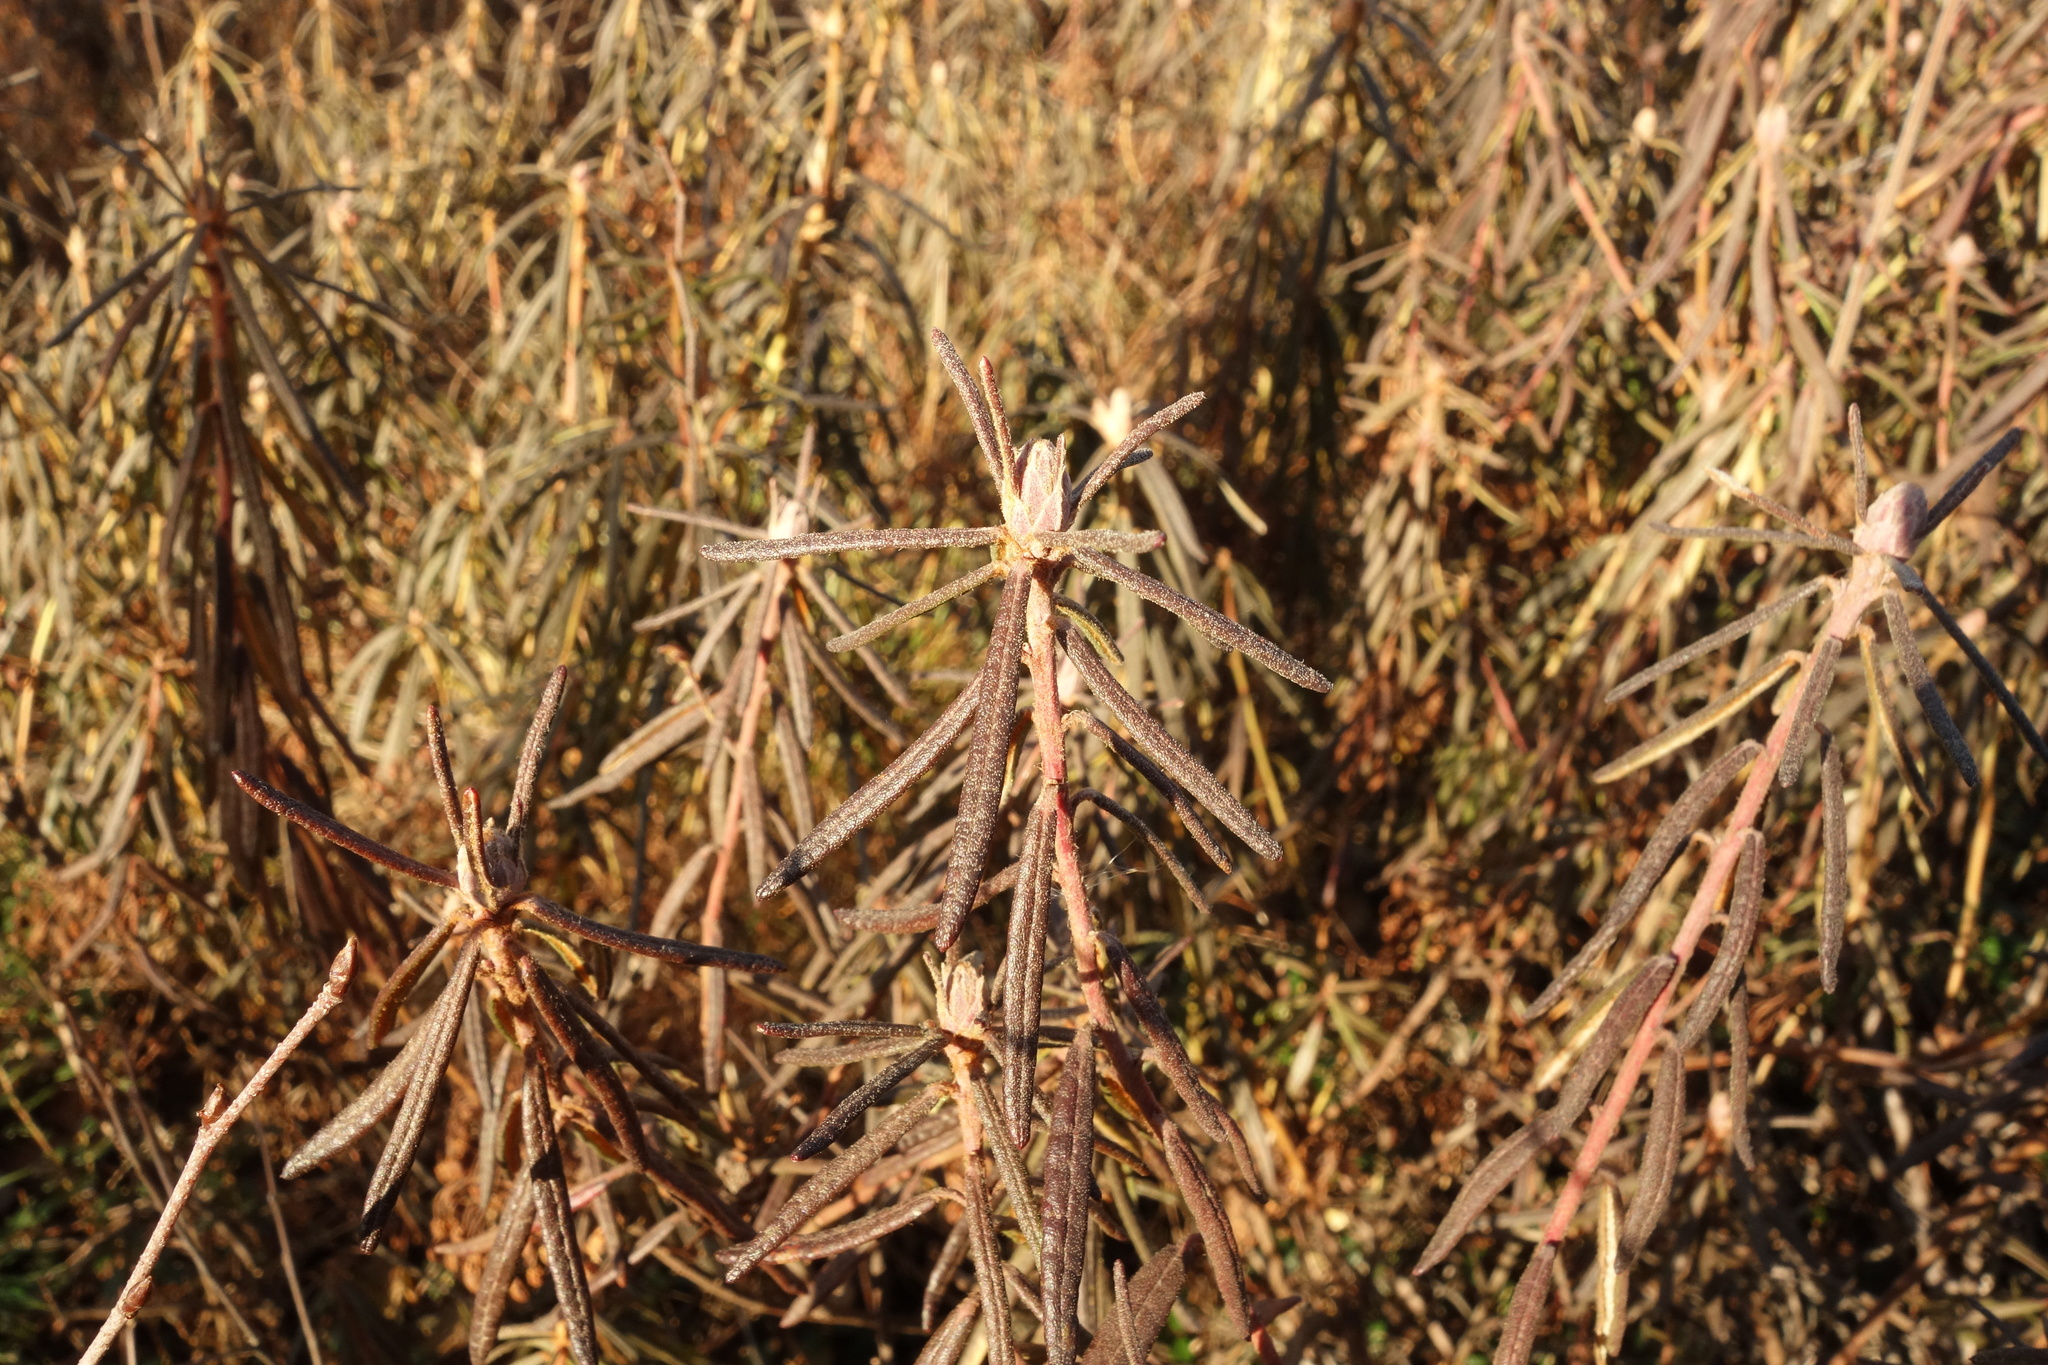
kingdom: Plantae
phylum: Tracheophyta
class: Magnoliopsida
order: Ericales
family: Ericaceae
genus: Rhododendron
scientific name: Rhododendron tomentosum
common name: Marsh labrador tea
